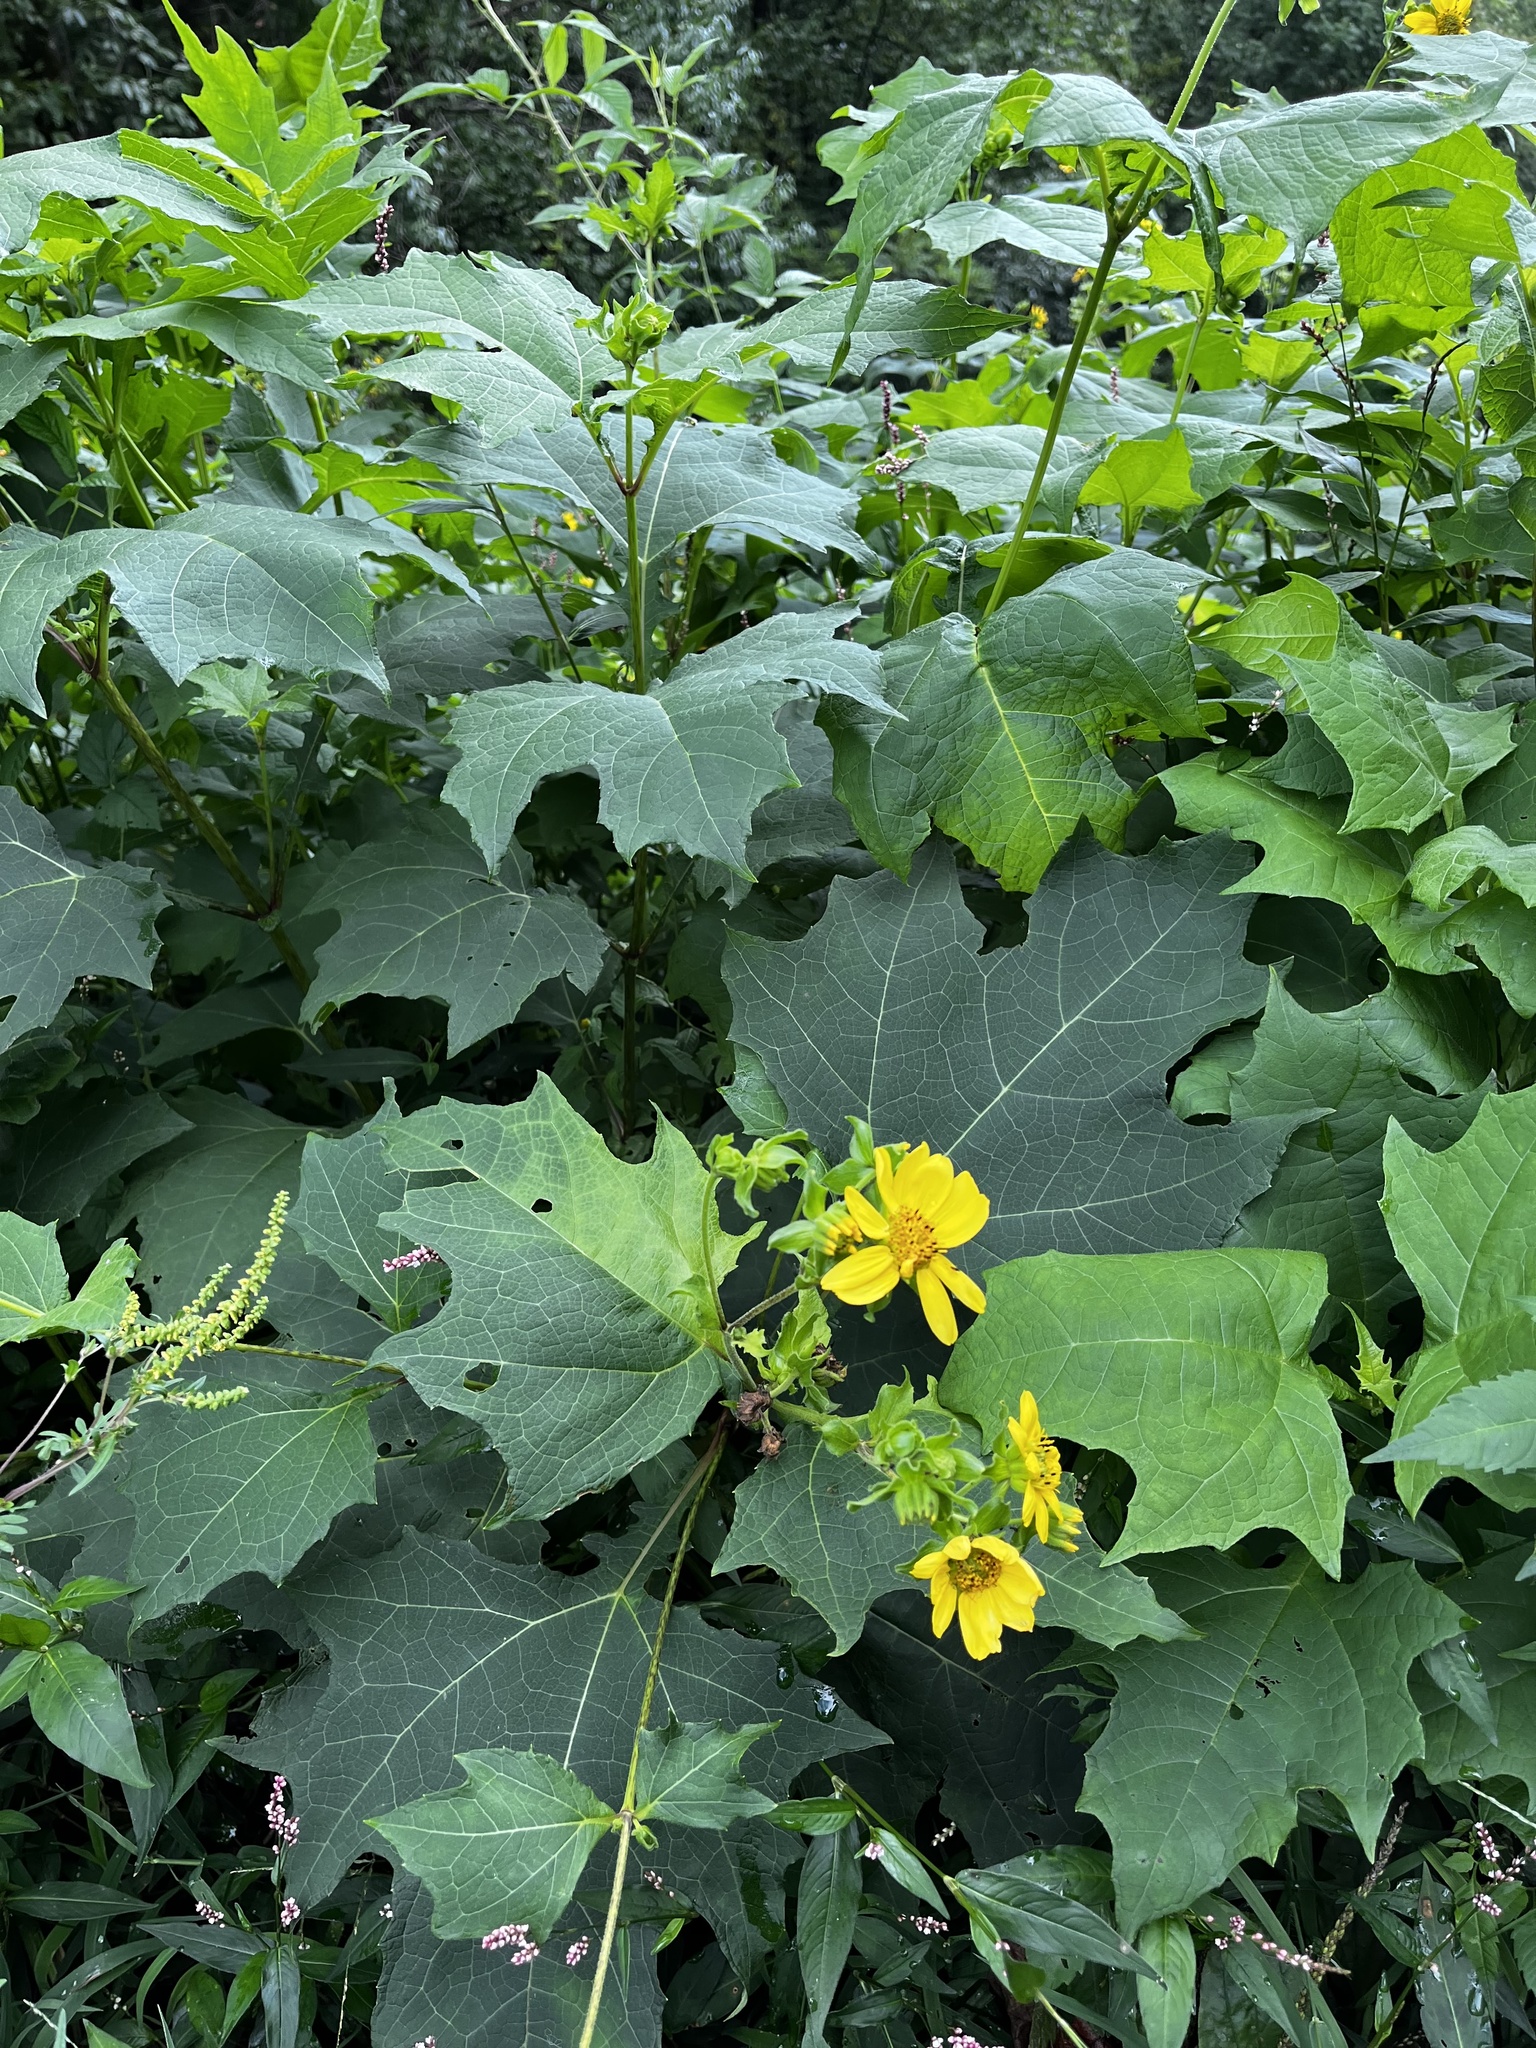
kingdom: Plantae
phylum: Tracheophyta
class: Magnoliopsida
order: Asterales
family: Asteraceae
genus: Smallanthus
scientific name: Smallanthus uvedalia
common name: Bear's-foot
